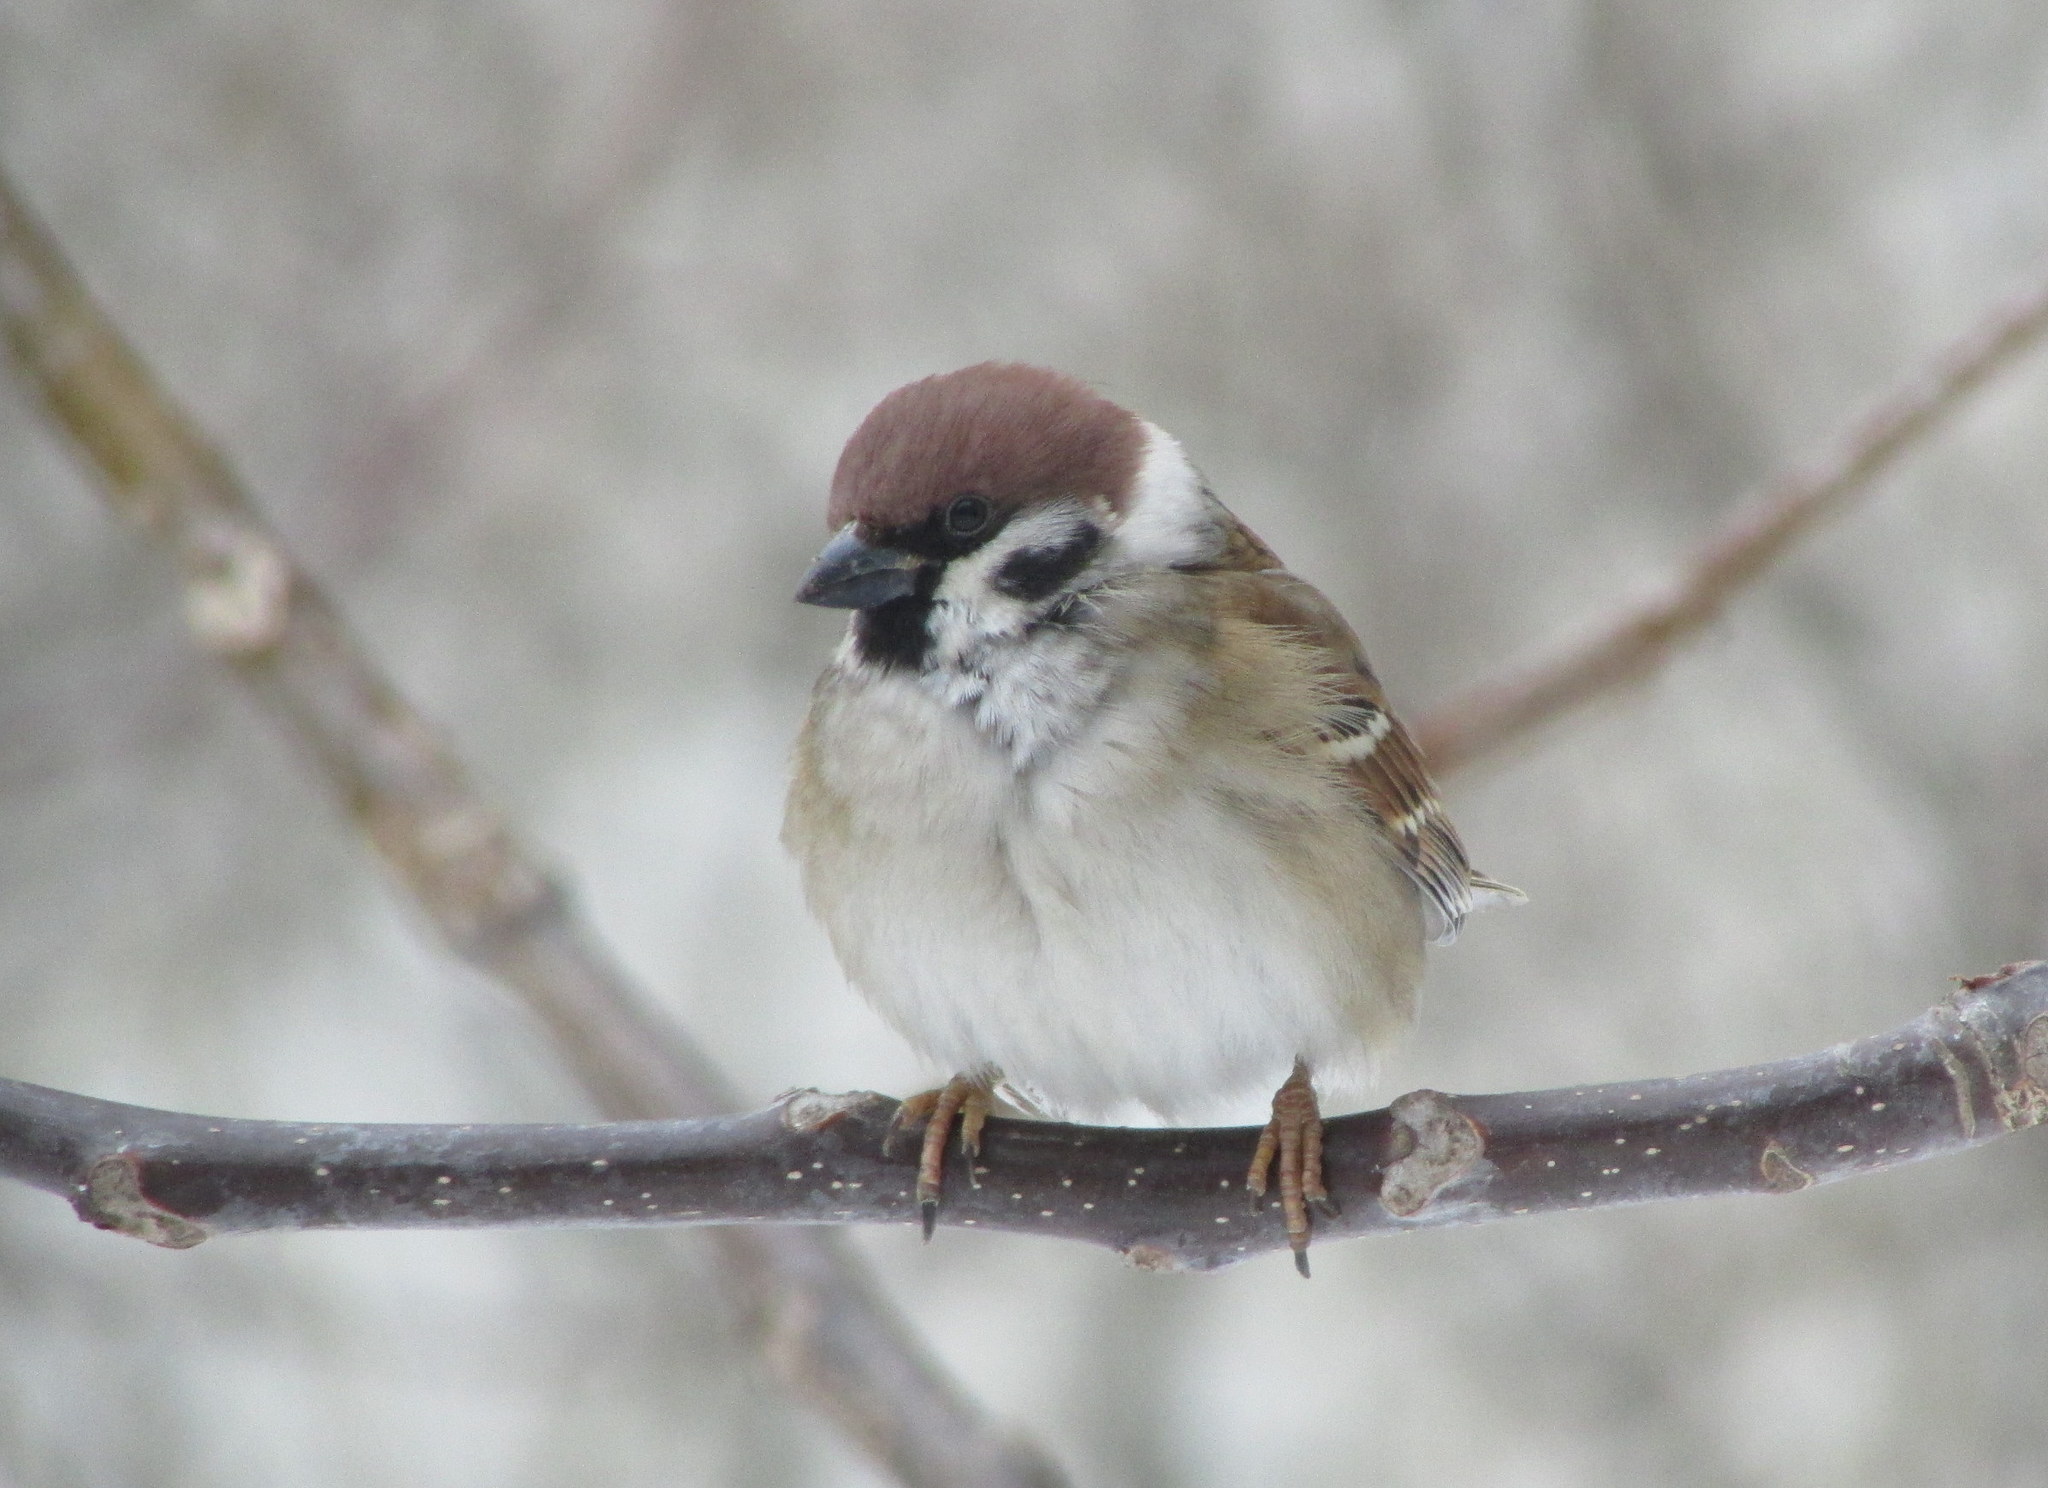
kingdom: Animalia
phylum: Chordata
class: Aves
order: Passeriformes
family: Passeridae
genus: Passer
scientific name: Passer montanus
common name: Eurasian tree sparrow
